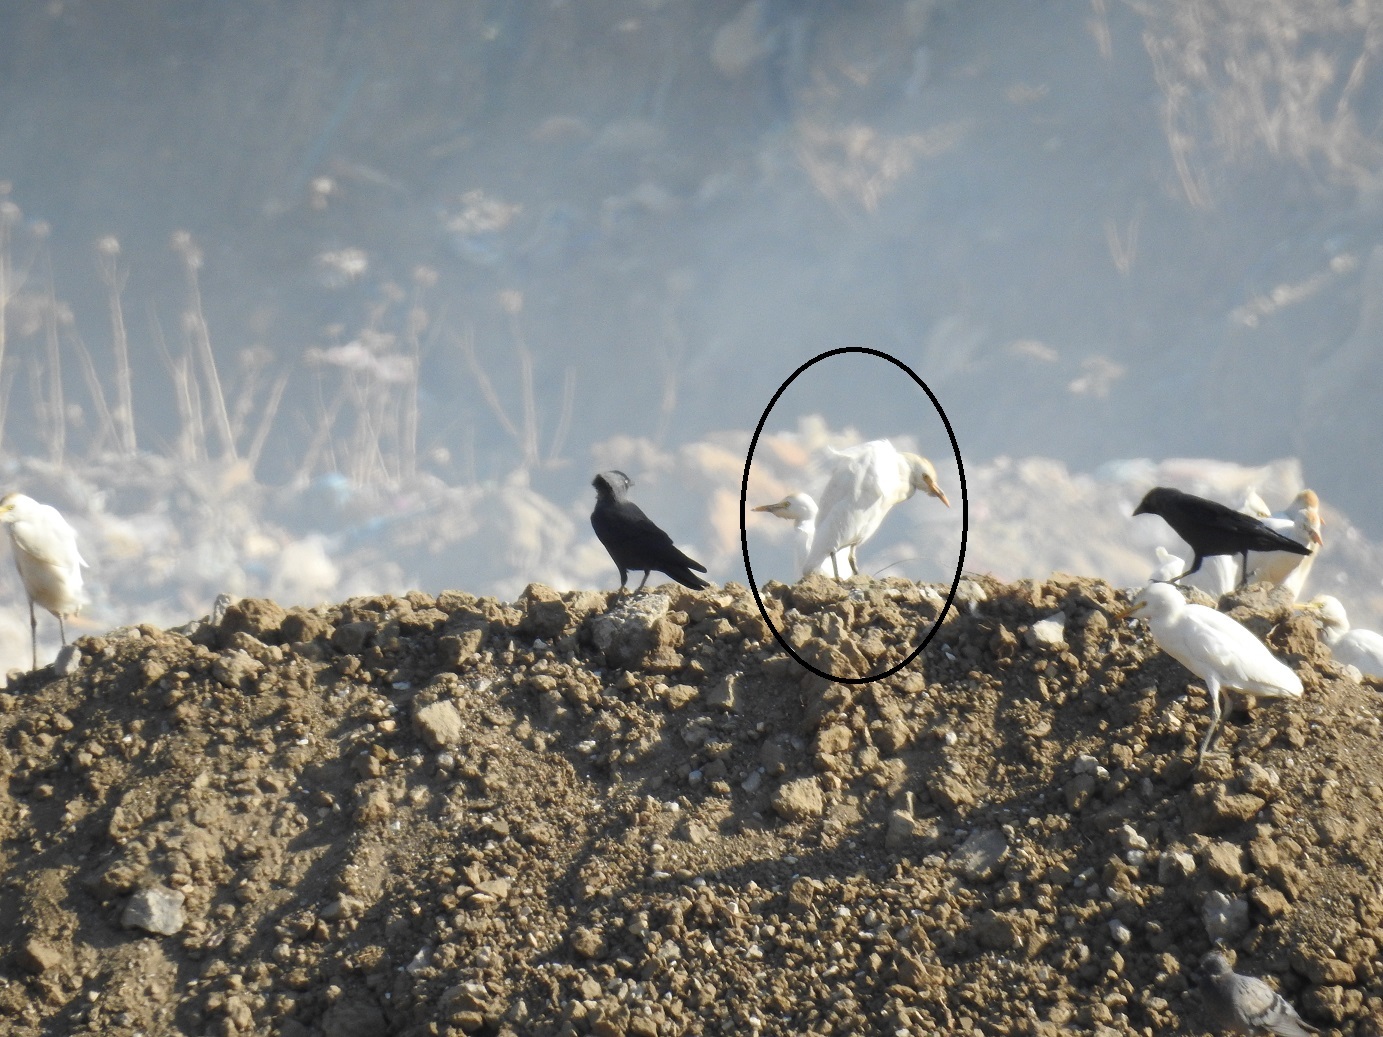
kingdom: Animalia
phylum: Chordata
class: Aves
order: Pelecaniformes
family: Ardeidae
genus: Bubulcus
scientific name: Bubulcus ibis
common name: Cattle egret
